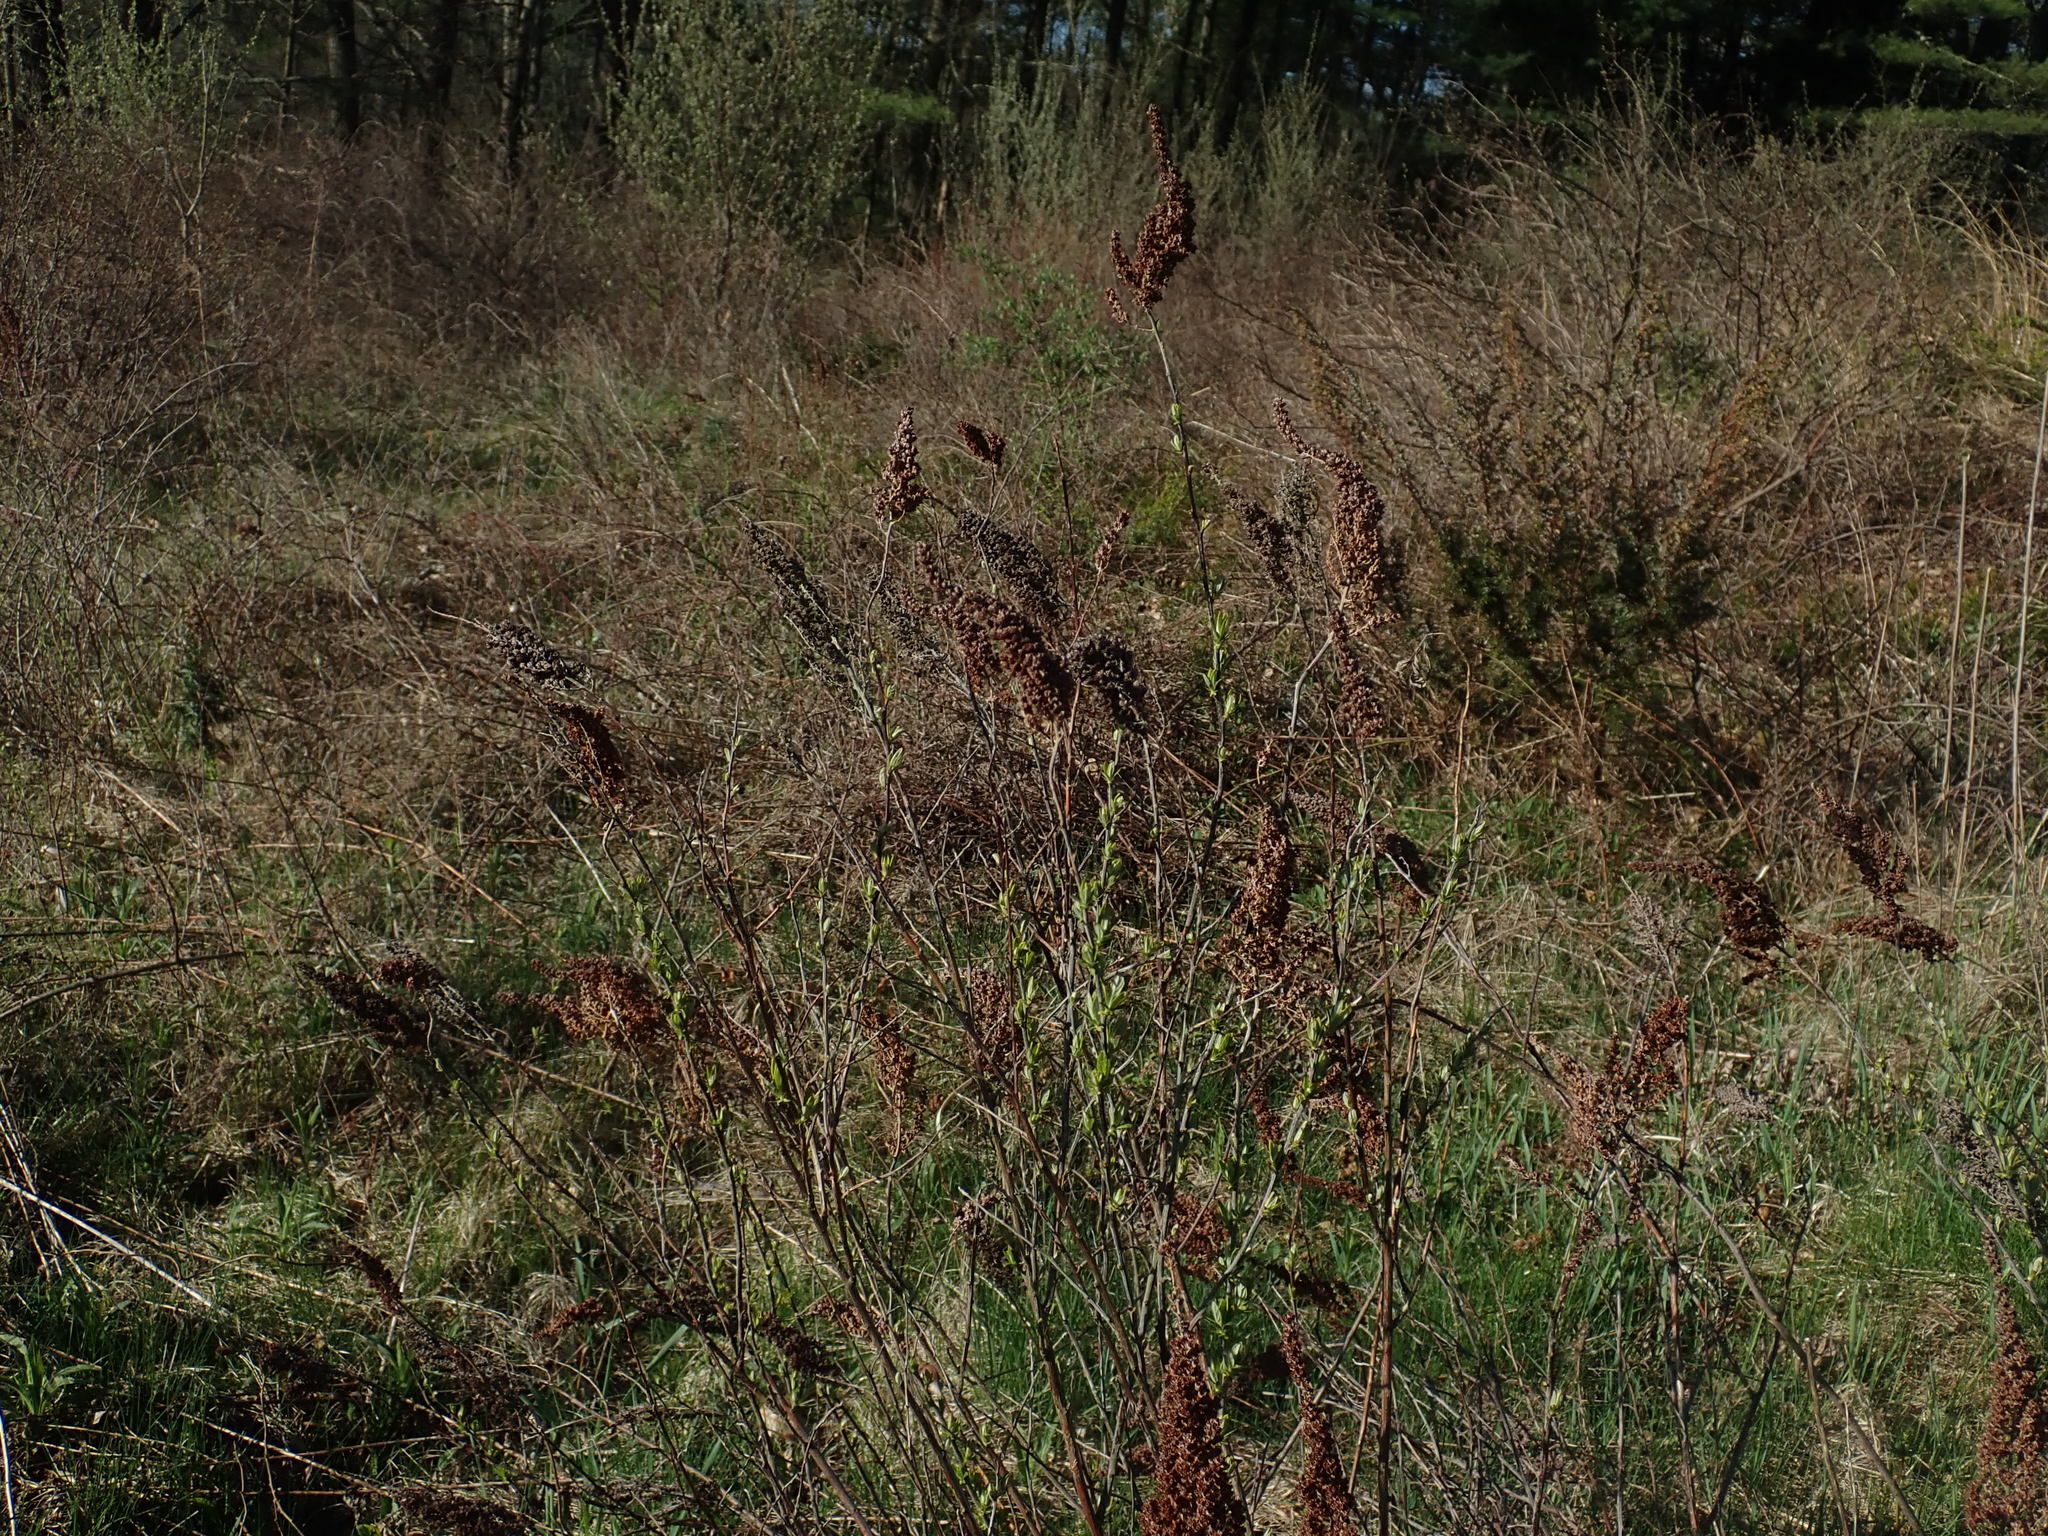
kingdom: Plantae
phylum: Tracheophyta
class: Magnoliopsida
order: Rosales
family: Rosaceae
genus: Spiraea
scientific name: Spiraea tomentosa
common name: Hardhack
